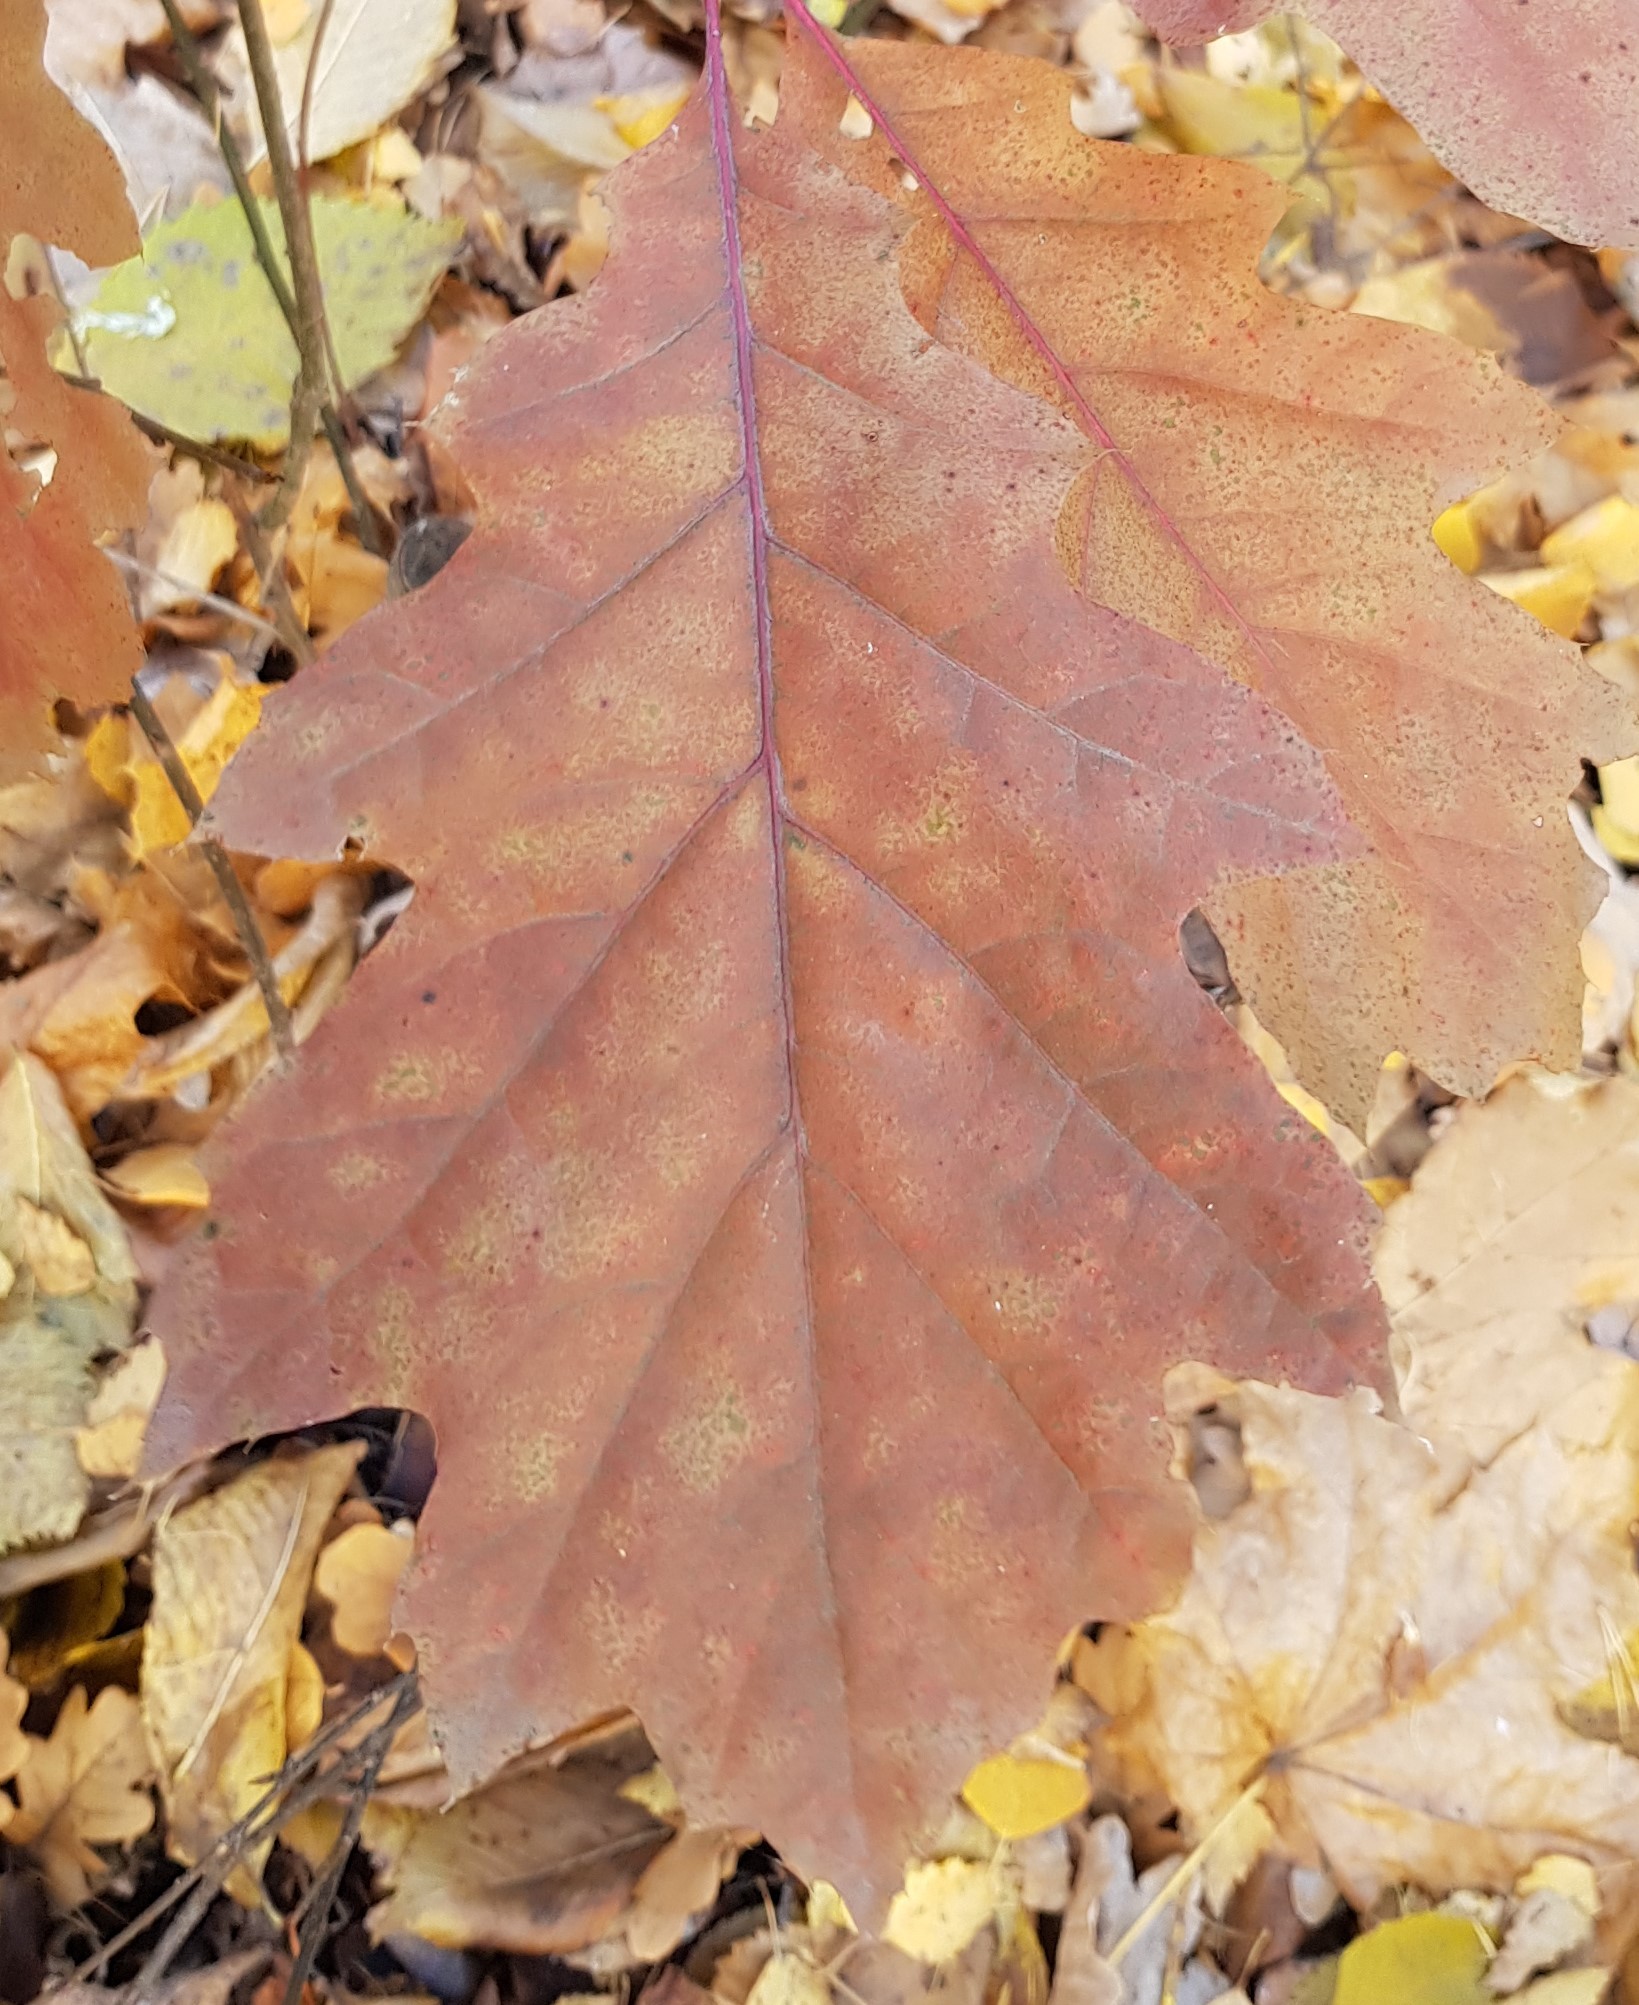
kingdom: Plantae
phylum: Tracheophyta
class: Magnoliopsida
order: Fagales
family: Fagaceae
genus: Quercus
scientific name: Quercus rubra
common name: Red oak
